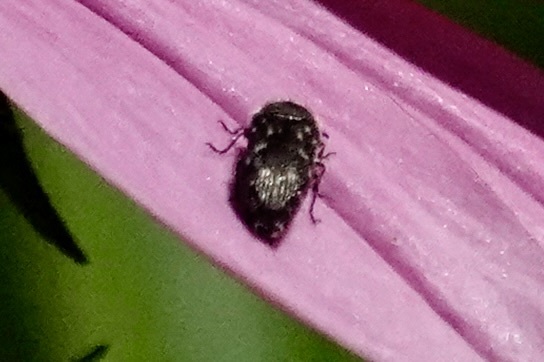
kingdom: Animalia
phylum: Arthropoda
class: Insecta
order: Coleoptera
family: Buprestidae
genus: Acmaeodera
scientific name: Acmaeodera tubulus
